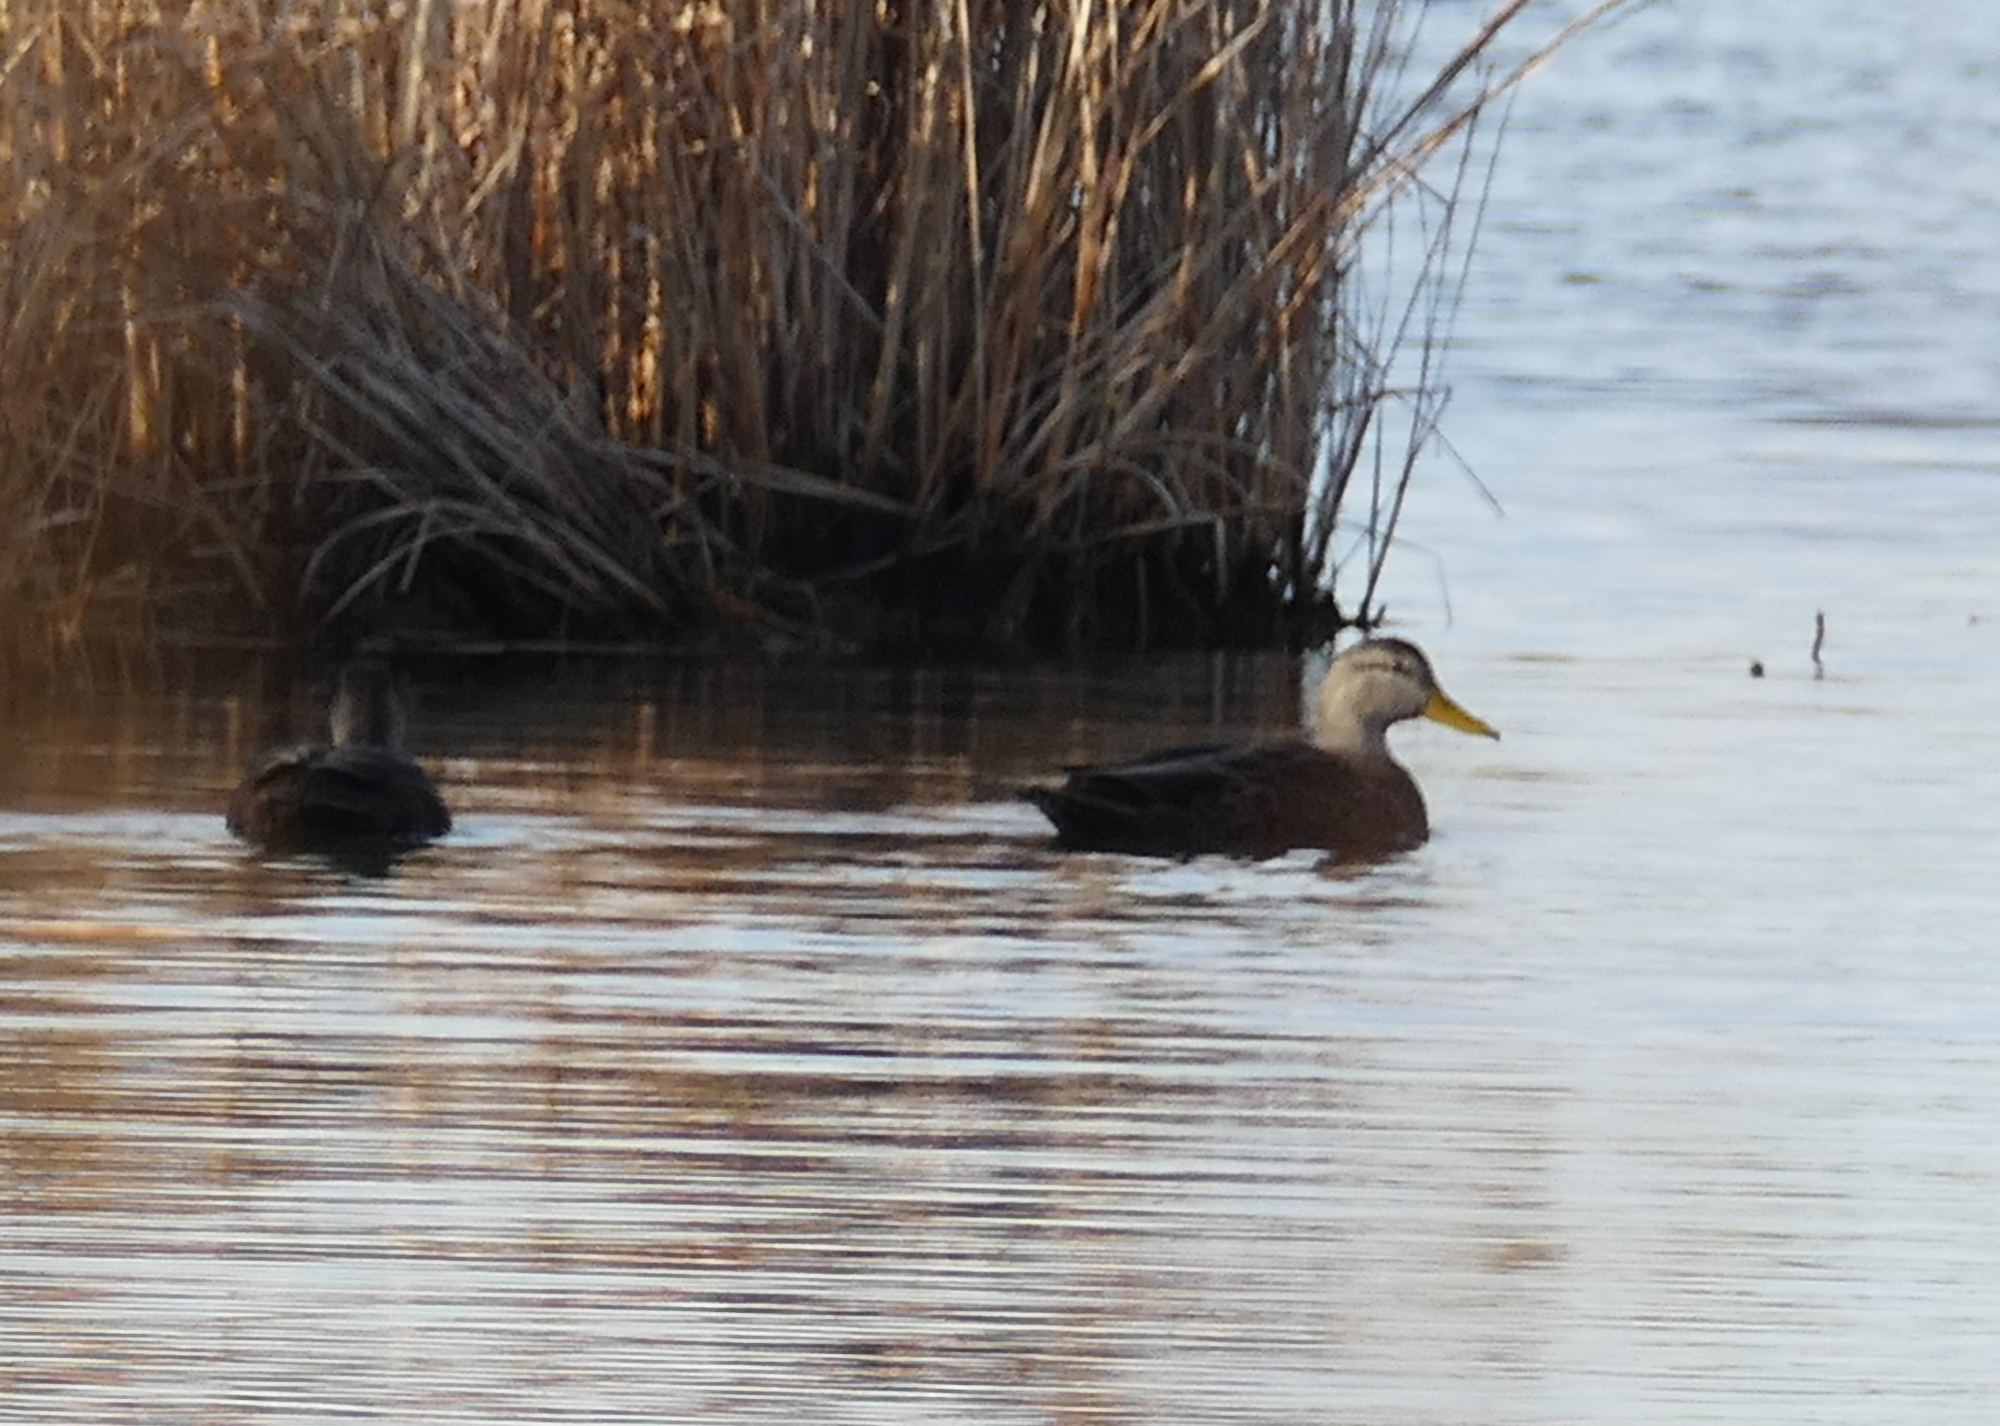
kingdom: Animalia
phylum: Chordata
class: Aves
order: Anseriformes
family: Anatidae
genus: Anas
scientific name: Anas rubripes
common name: American black duck
